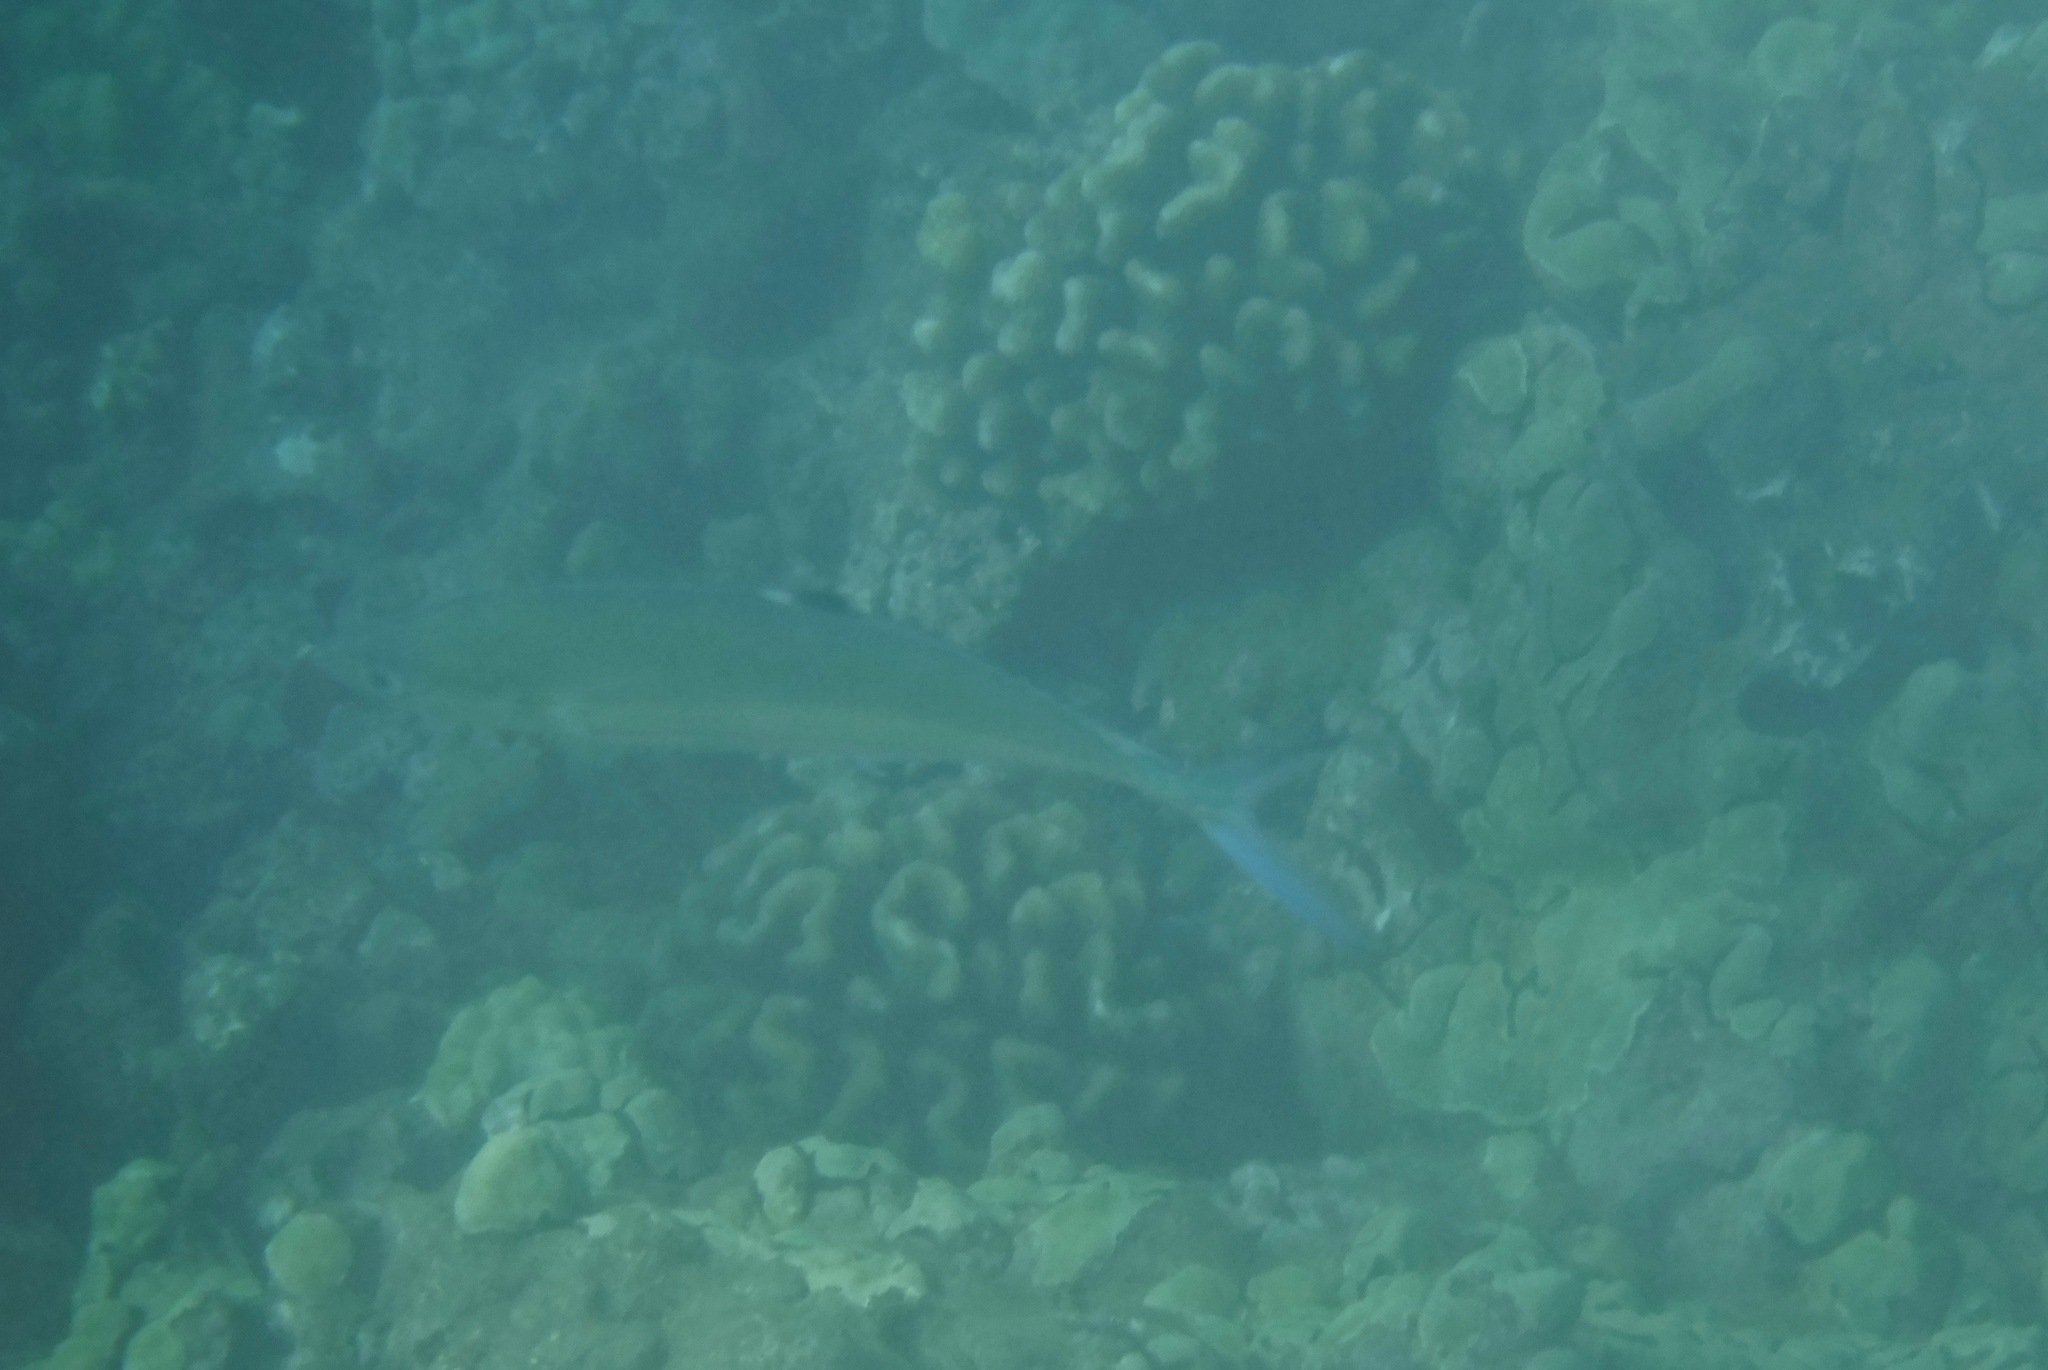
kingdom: Animalia
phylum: Chordata
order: Perciformes
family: Carangidae
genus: Scomberoides
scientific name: Scomberoides lysan
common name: Doublespotted queenfish
